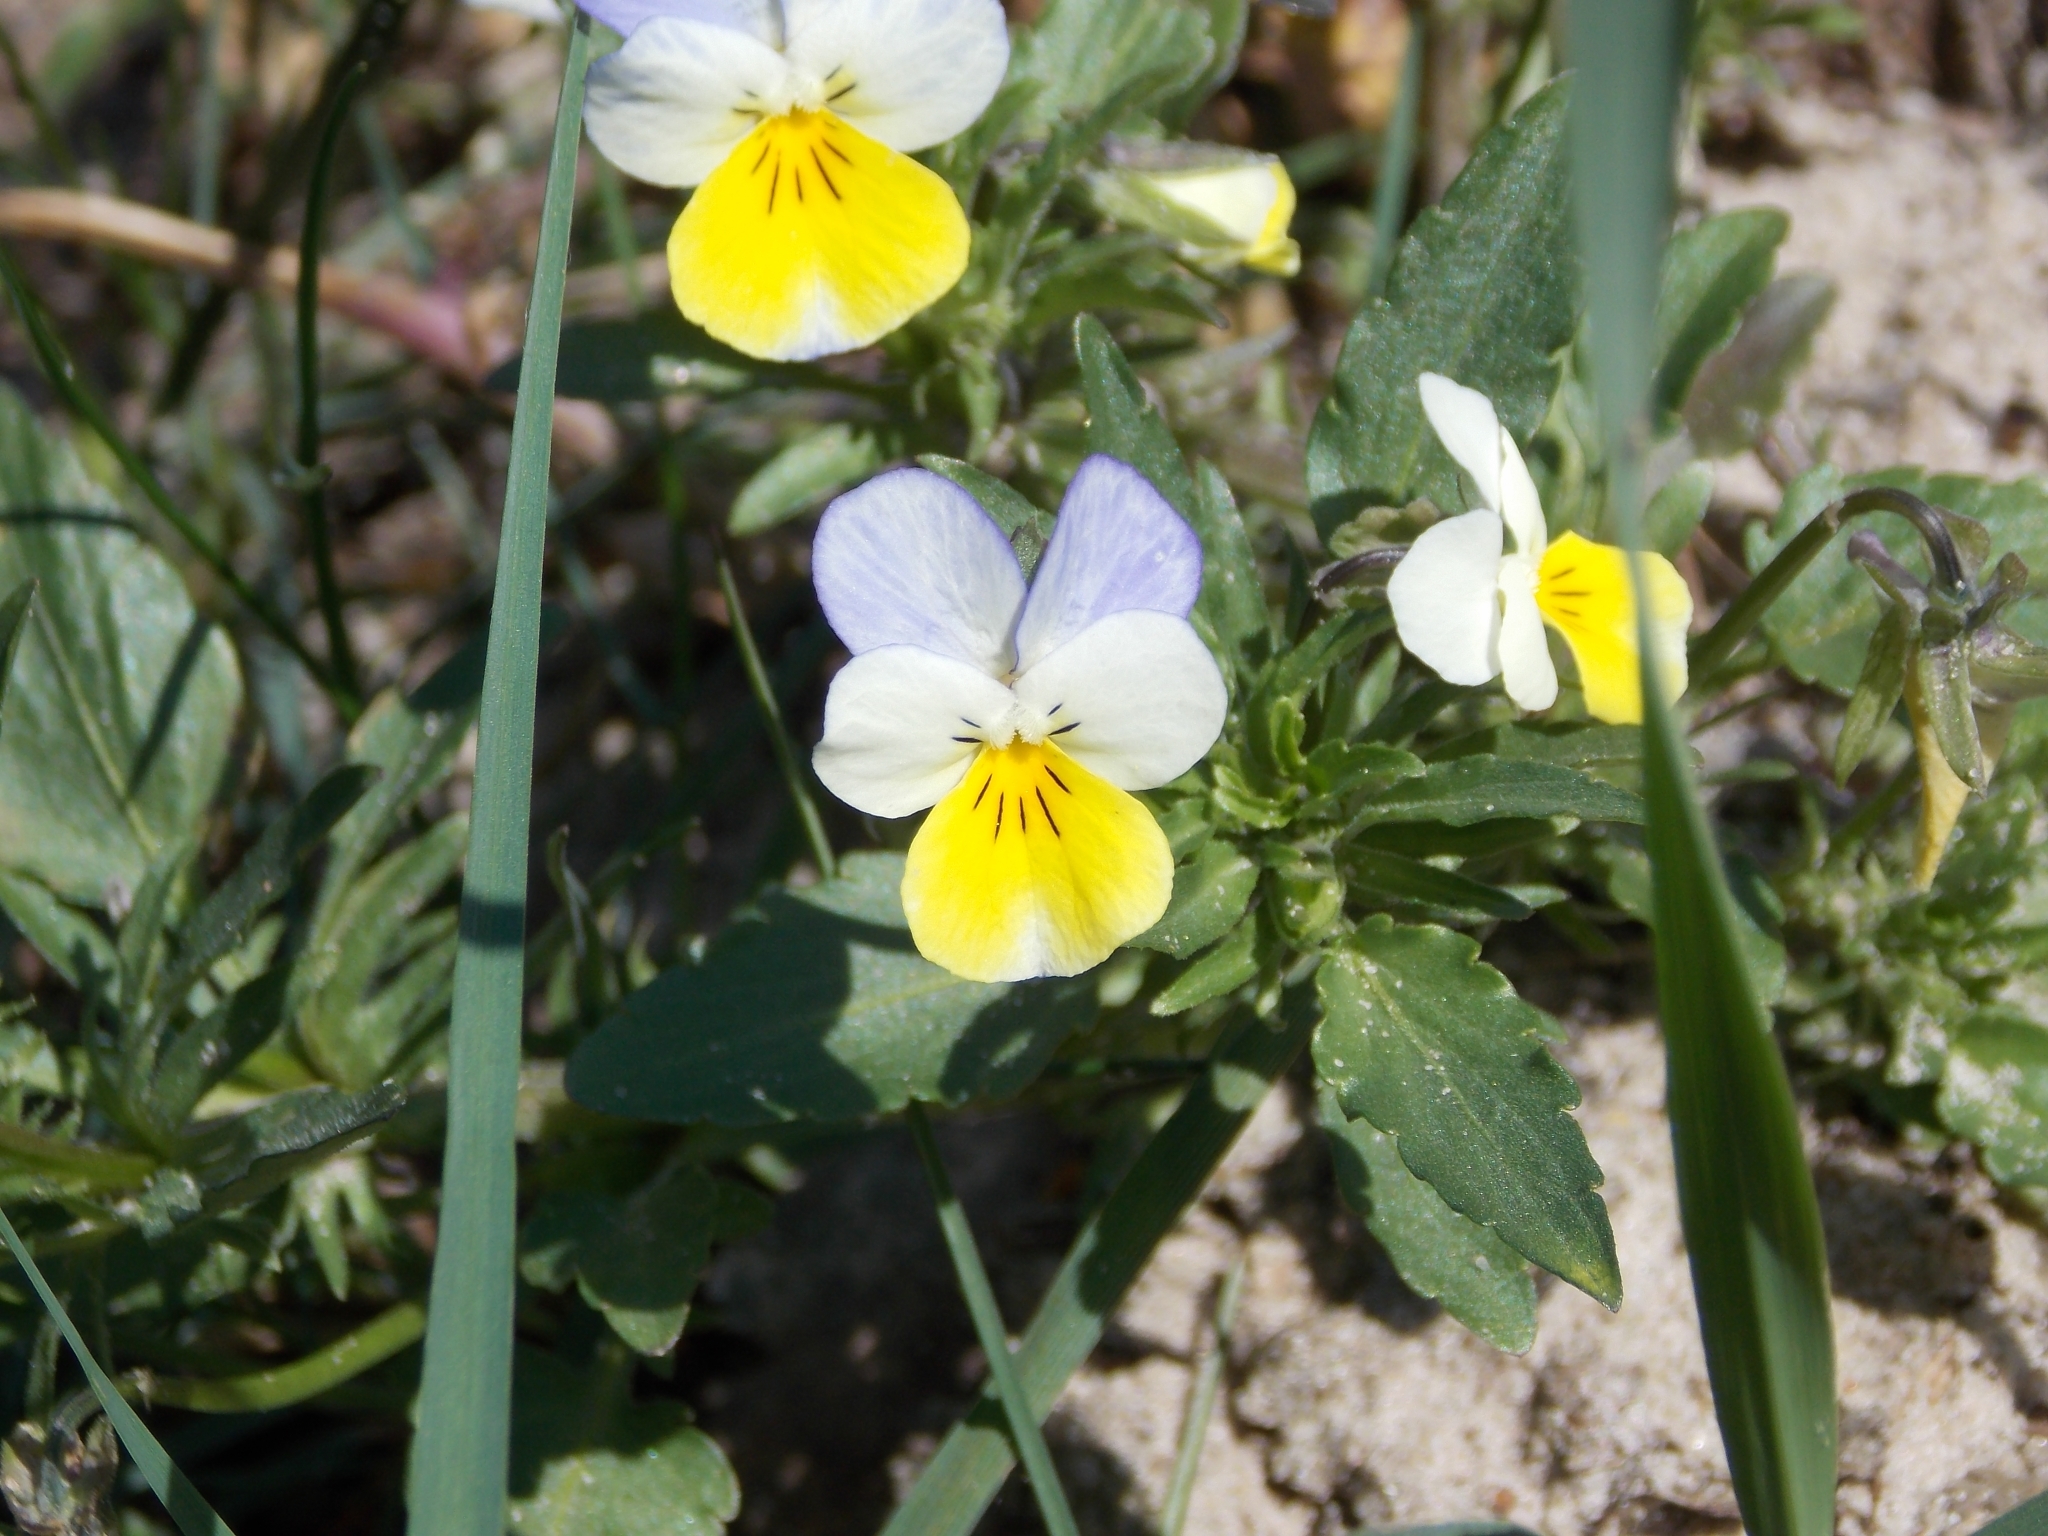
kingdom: Plantae
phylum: Tracheophyta
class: Magnoliopsida
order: Malpighiales
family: Violaceae
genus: Viola
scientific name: Viola arvensis
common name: Field pansy
